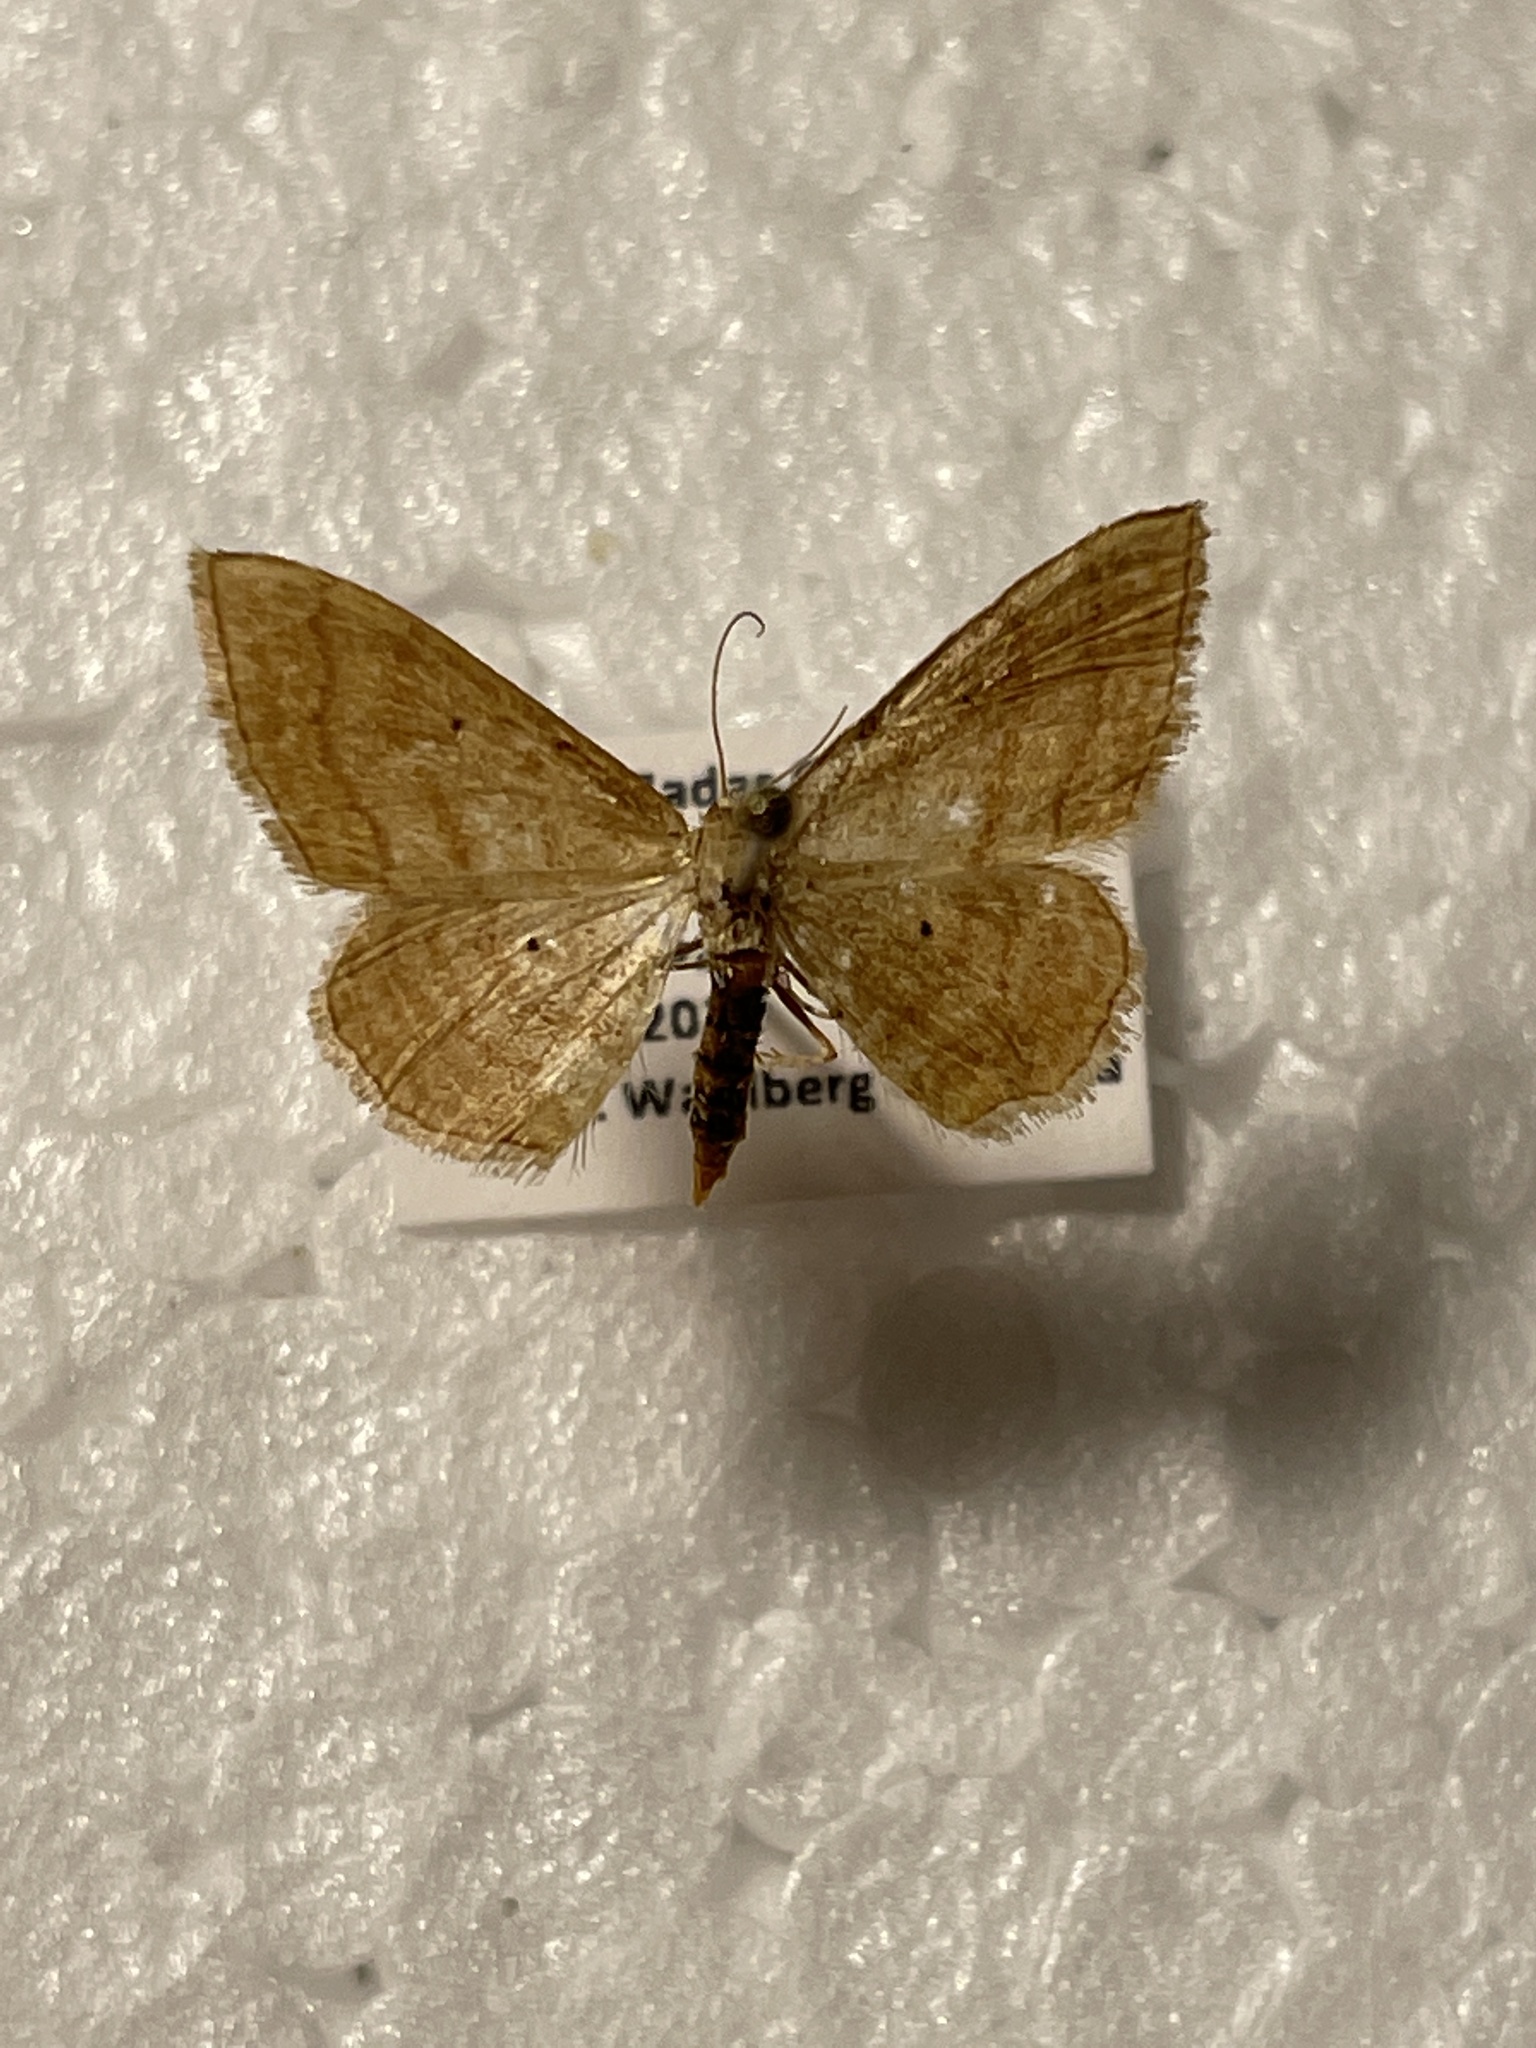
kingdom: Animalia
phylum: Arthropoda
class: Insecta
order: Lepidoptera
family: Geometridae
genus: Idaea
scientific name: Idaea rufaria
